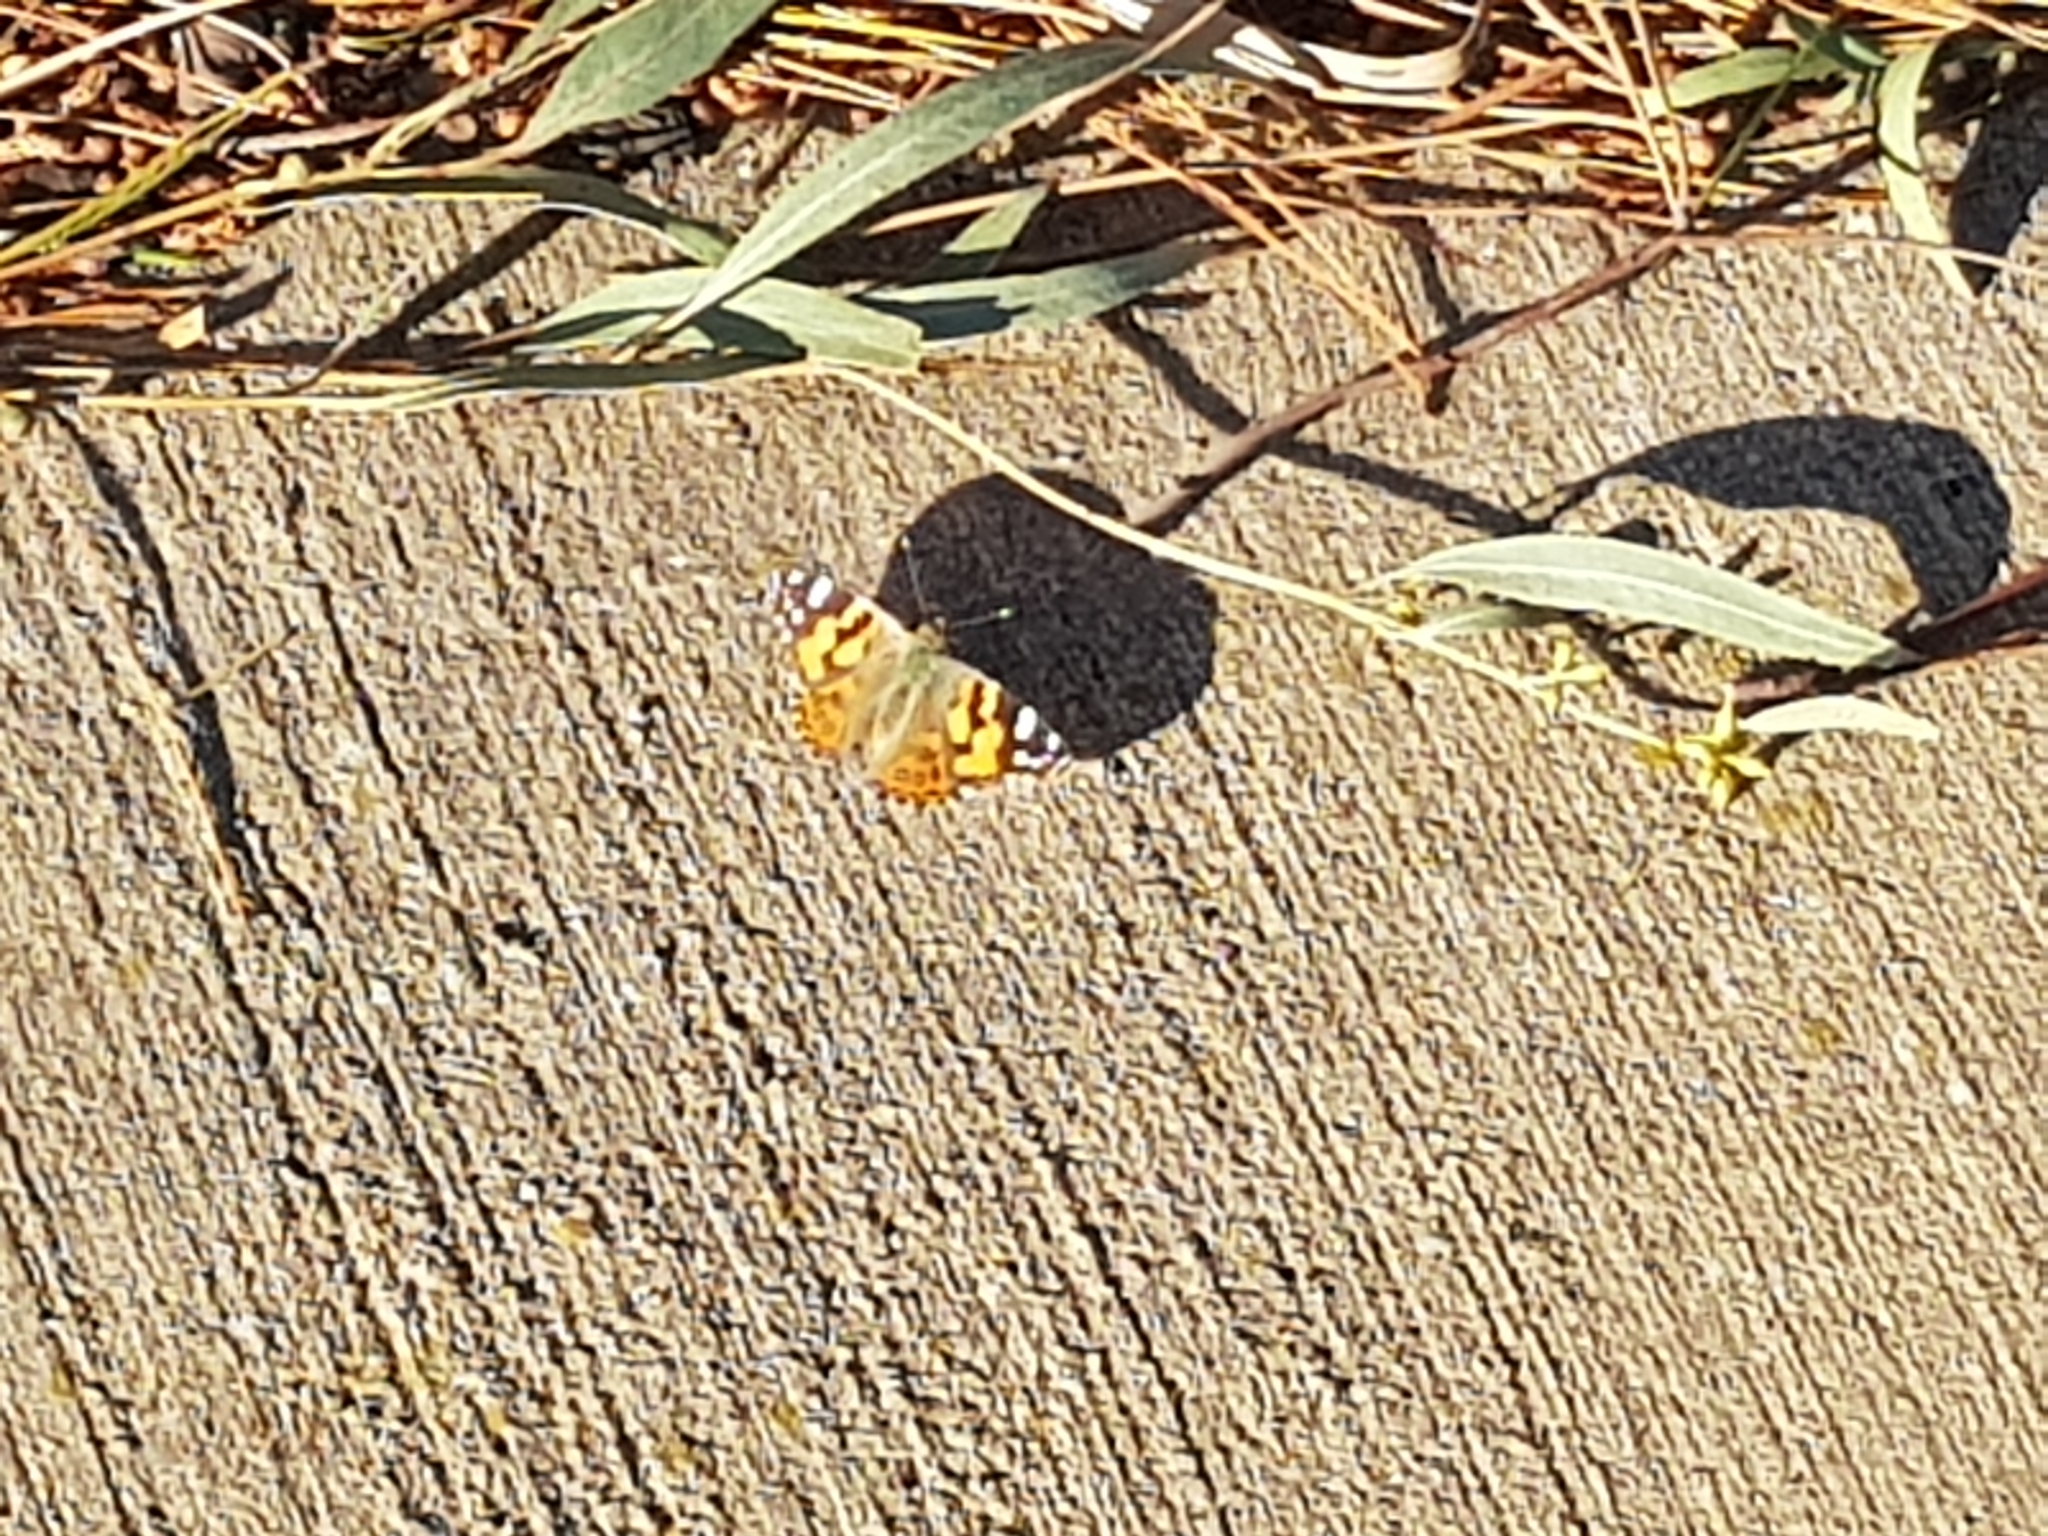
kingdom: Animalia
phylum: Arthropoda
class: Insecta
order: Lepidoptera
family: Nymphalidae
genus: Vanessa
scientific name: Vanessa kershawi
